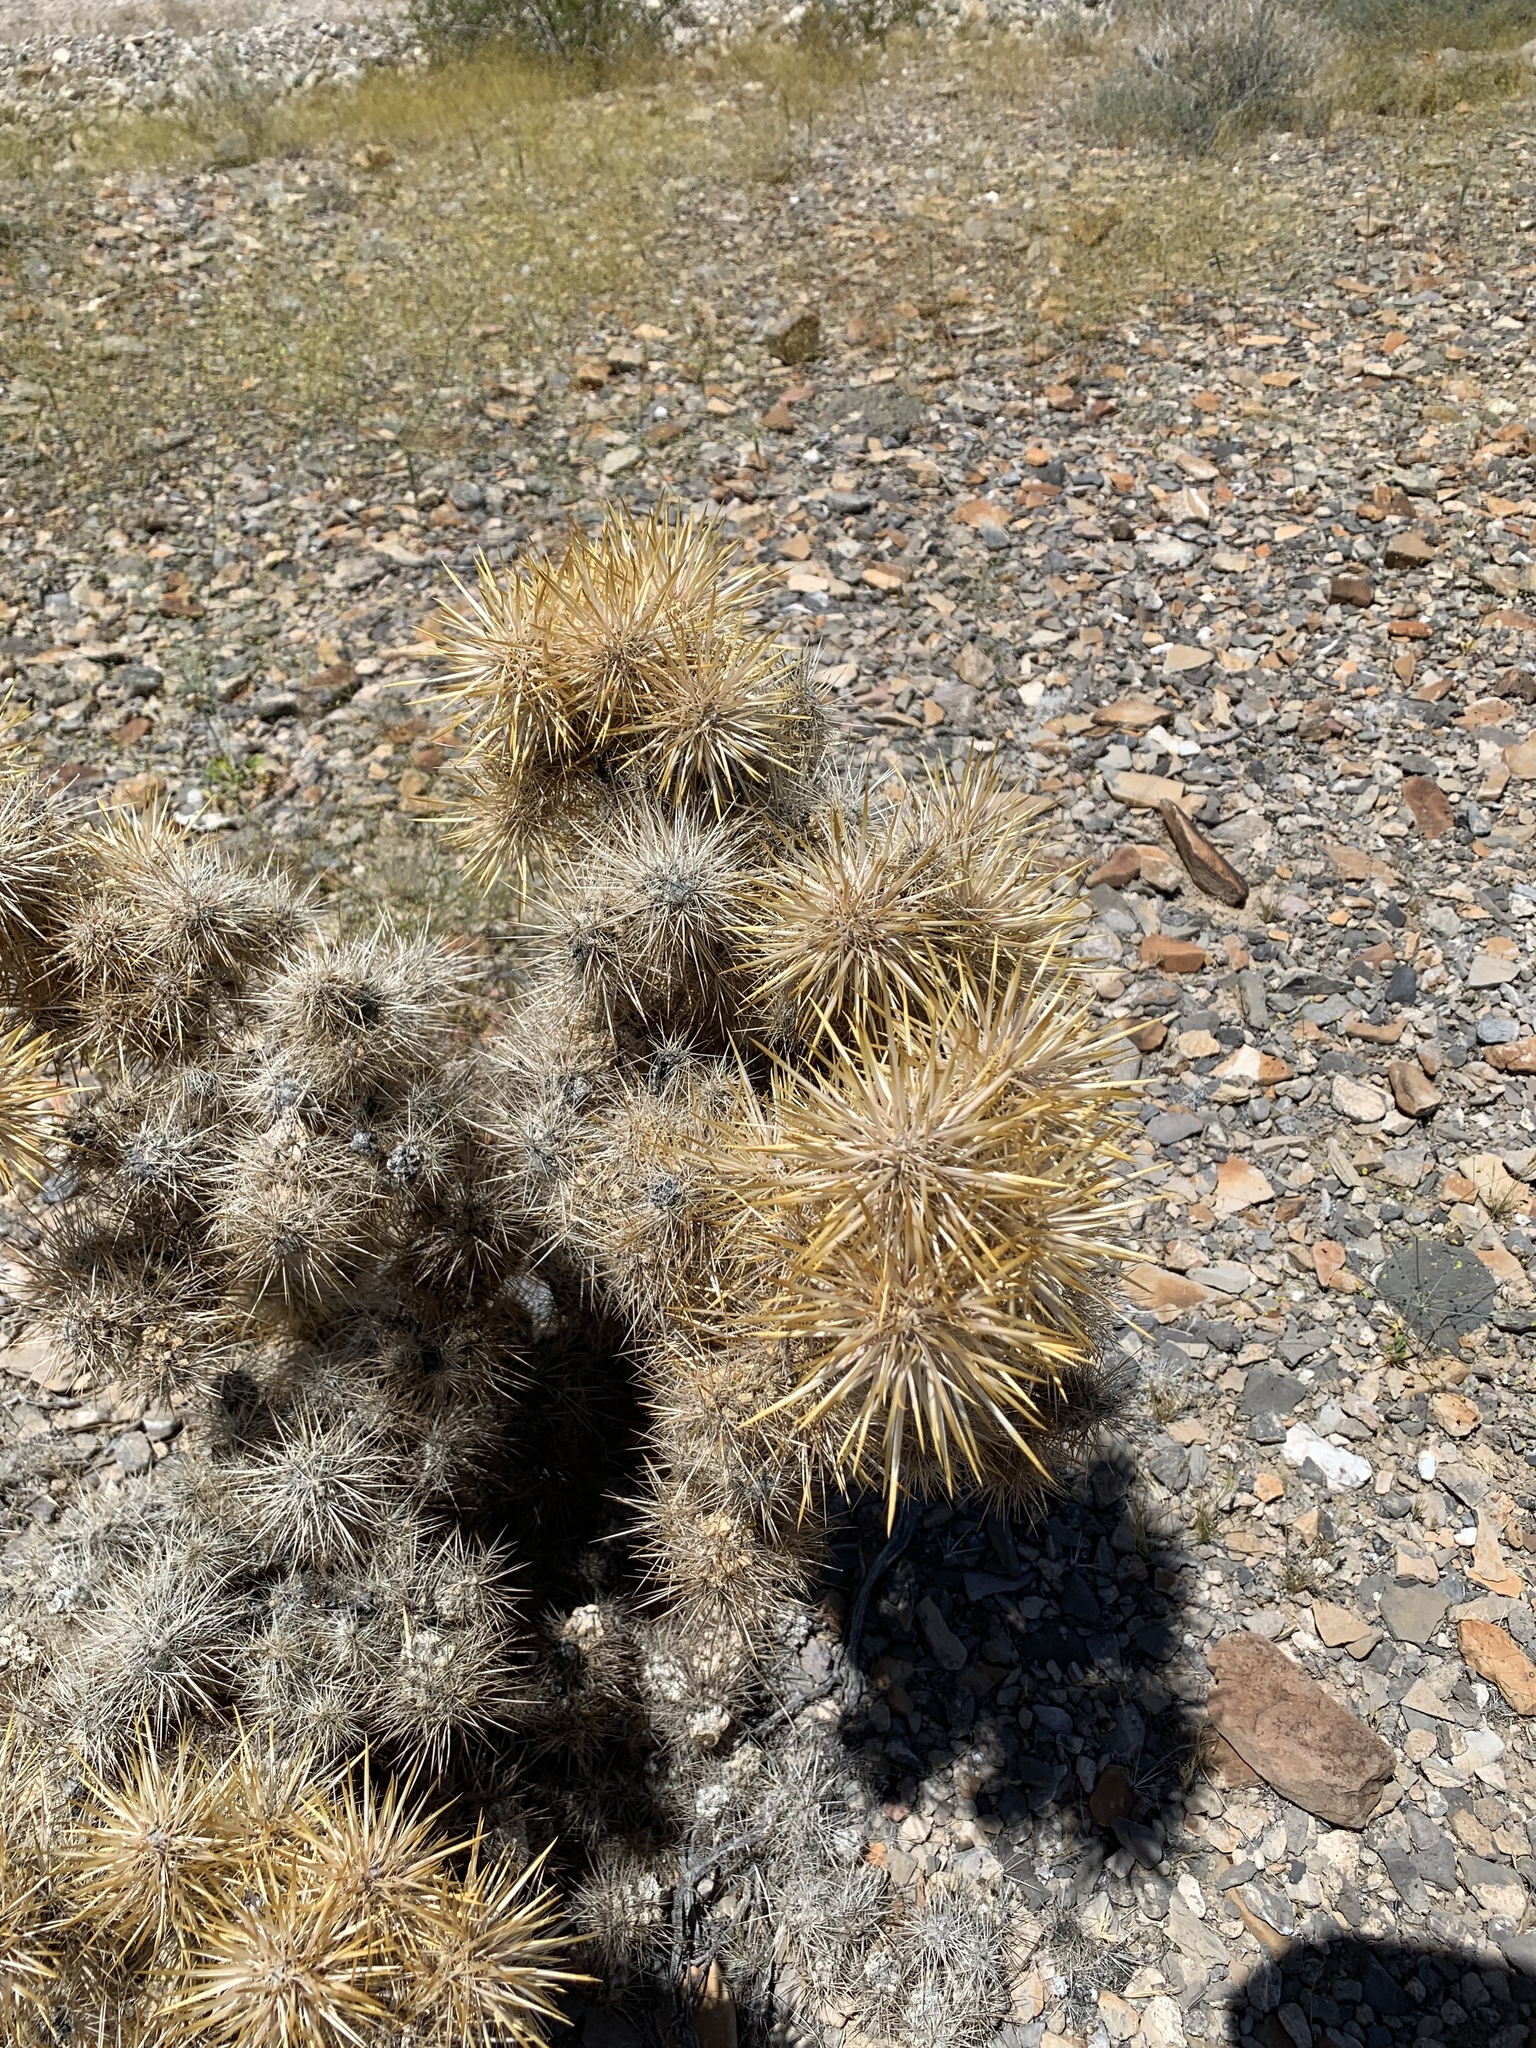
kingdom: Plantae
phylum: Tracheophyta
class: Magnoliopsida
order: Caryophyllales
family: Cactaceae
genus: Cylindropuntia
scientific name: Cylindropuntia echinocarpa
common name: Ground cholla
